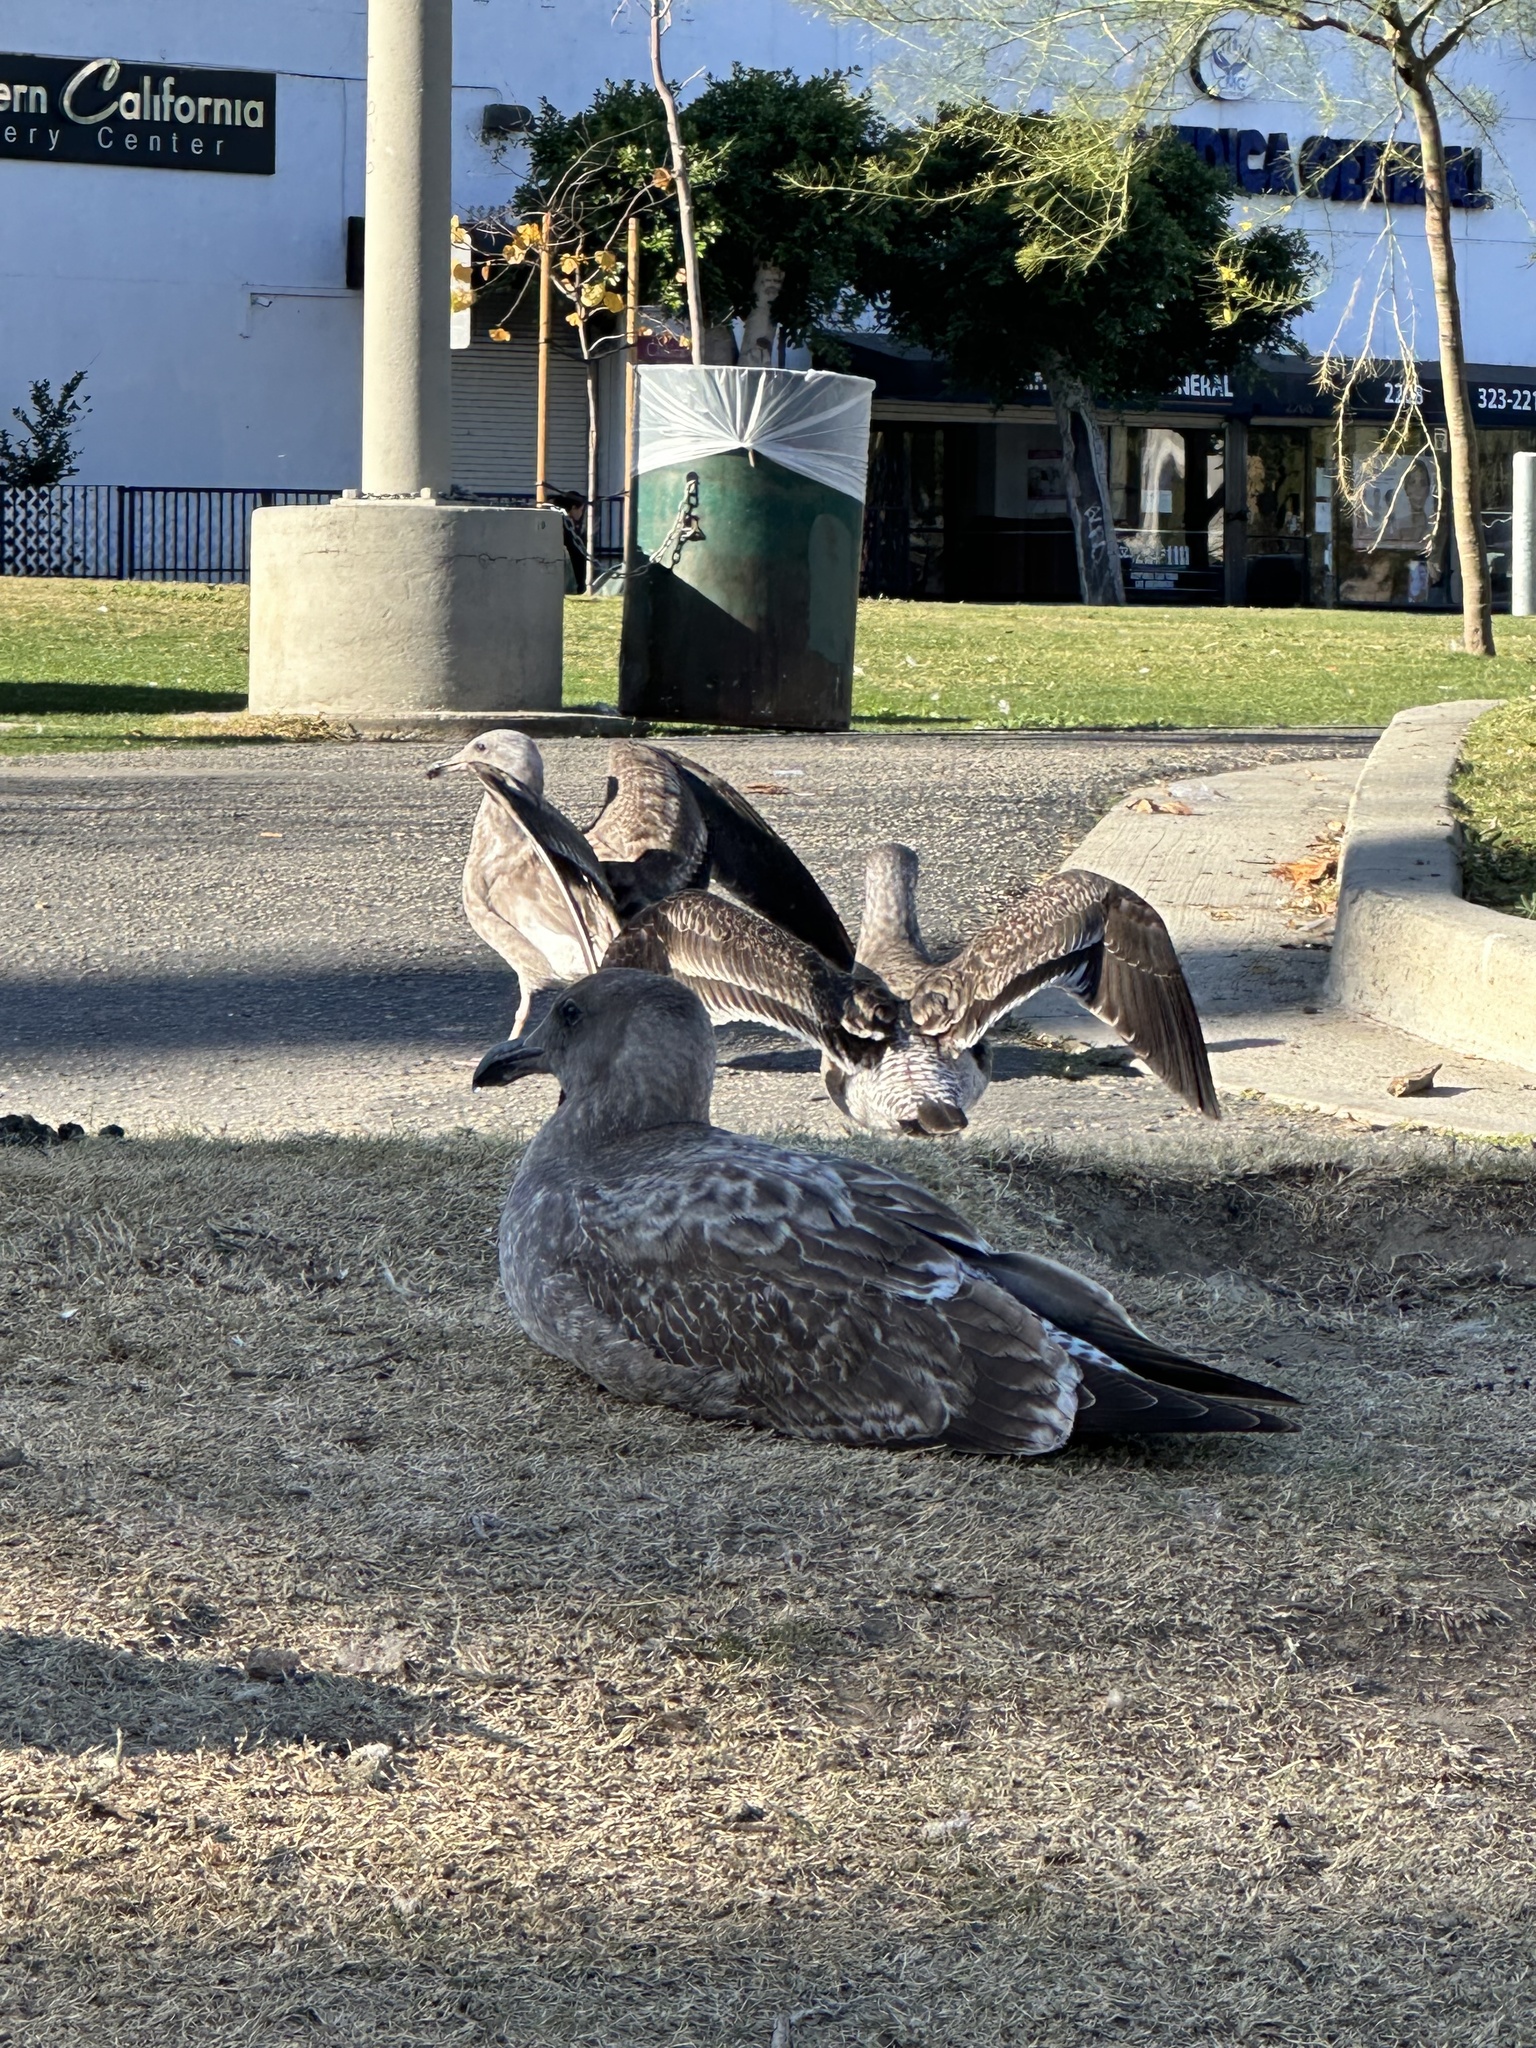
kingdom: Animalia
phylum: Chordata
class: Aves
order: Charadriiformes
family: Laridae
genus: Larus
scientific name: Larus occidentalis
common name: Western gull
